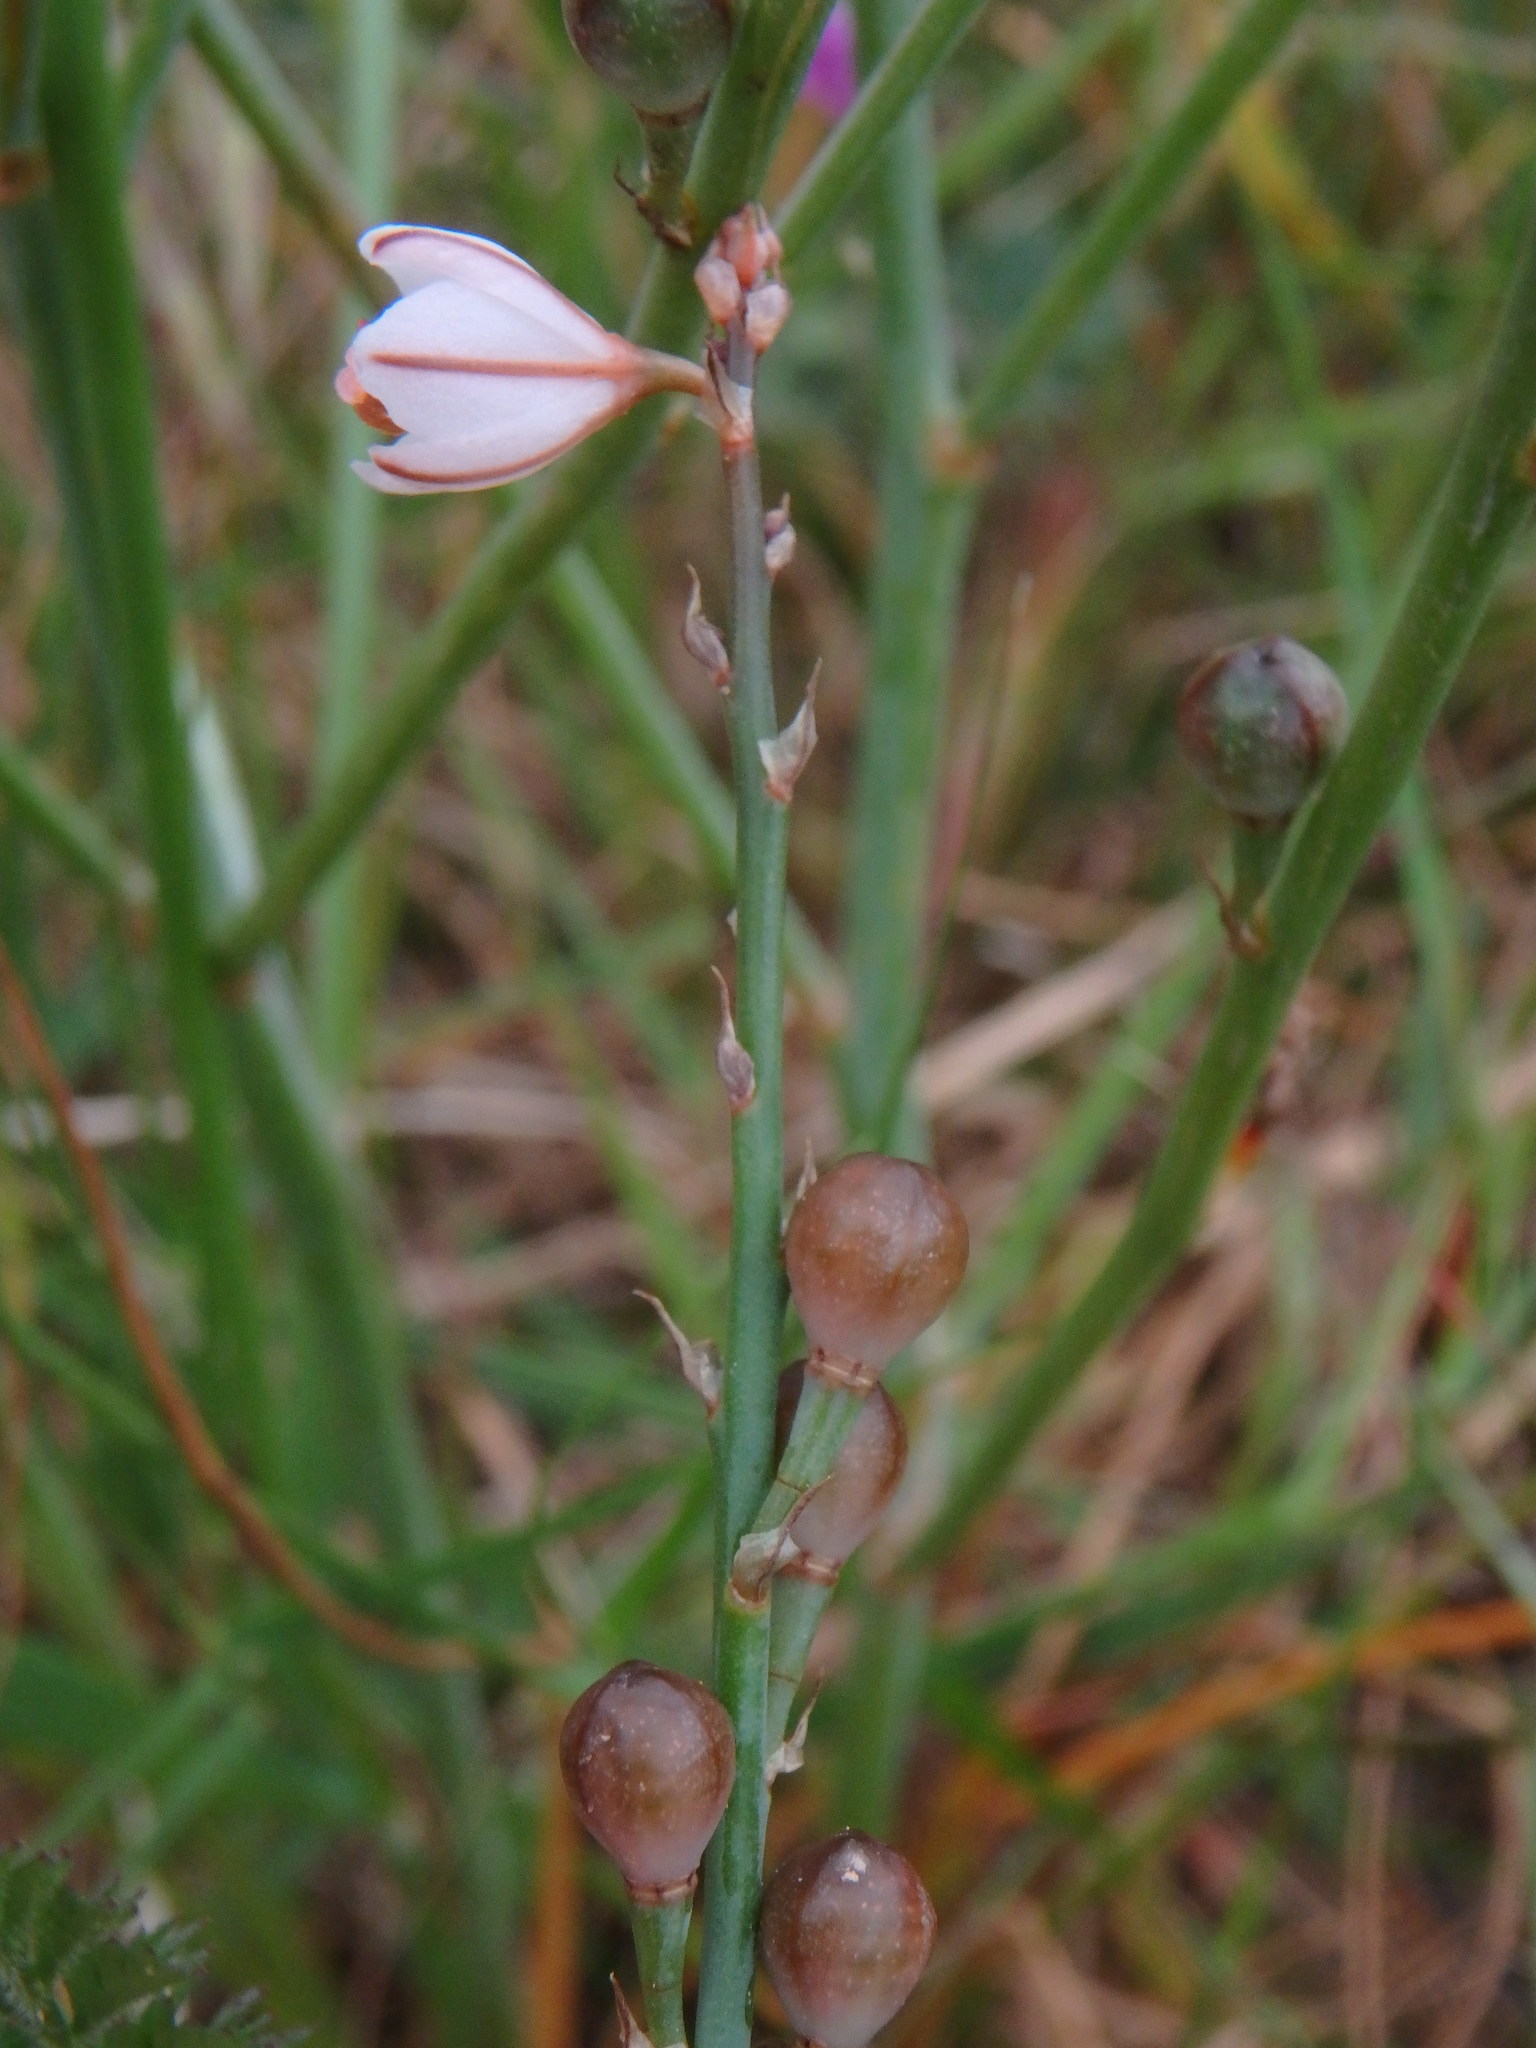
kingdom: Plantae
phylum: Tracheophyta
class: Liliopsida
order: Asparagales
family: Asphodelaceae
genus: Asphodelus
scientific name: Asphodelus fistulosus
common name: Onionweed
